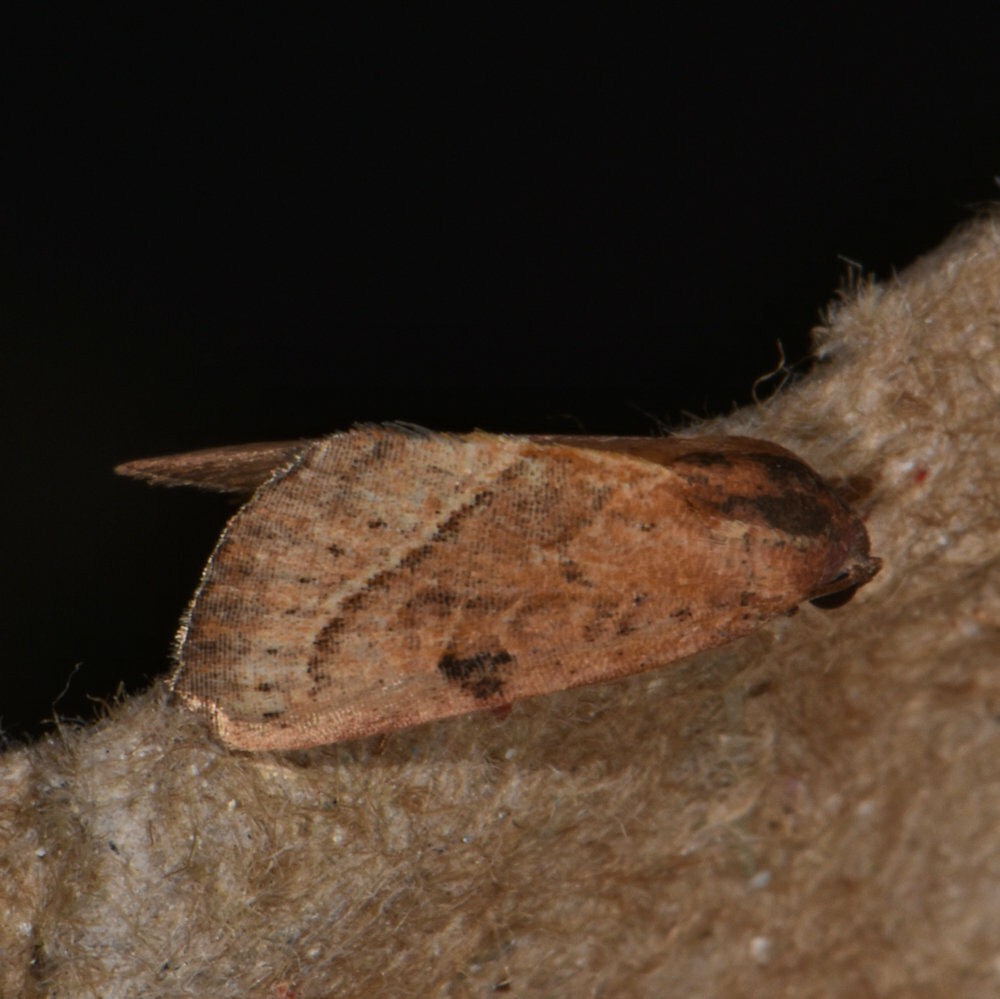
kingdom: Animalia
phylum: Arthropoda
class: Insecta
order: Lepidoptera
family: Noctuidae
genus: Galgula
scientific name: Galgula partita
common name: Wedgeling
